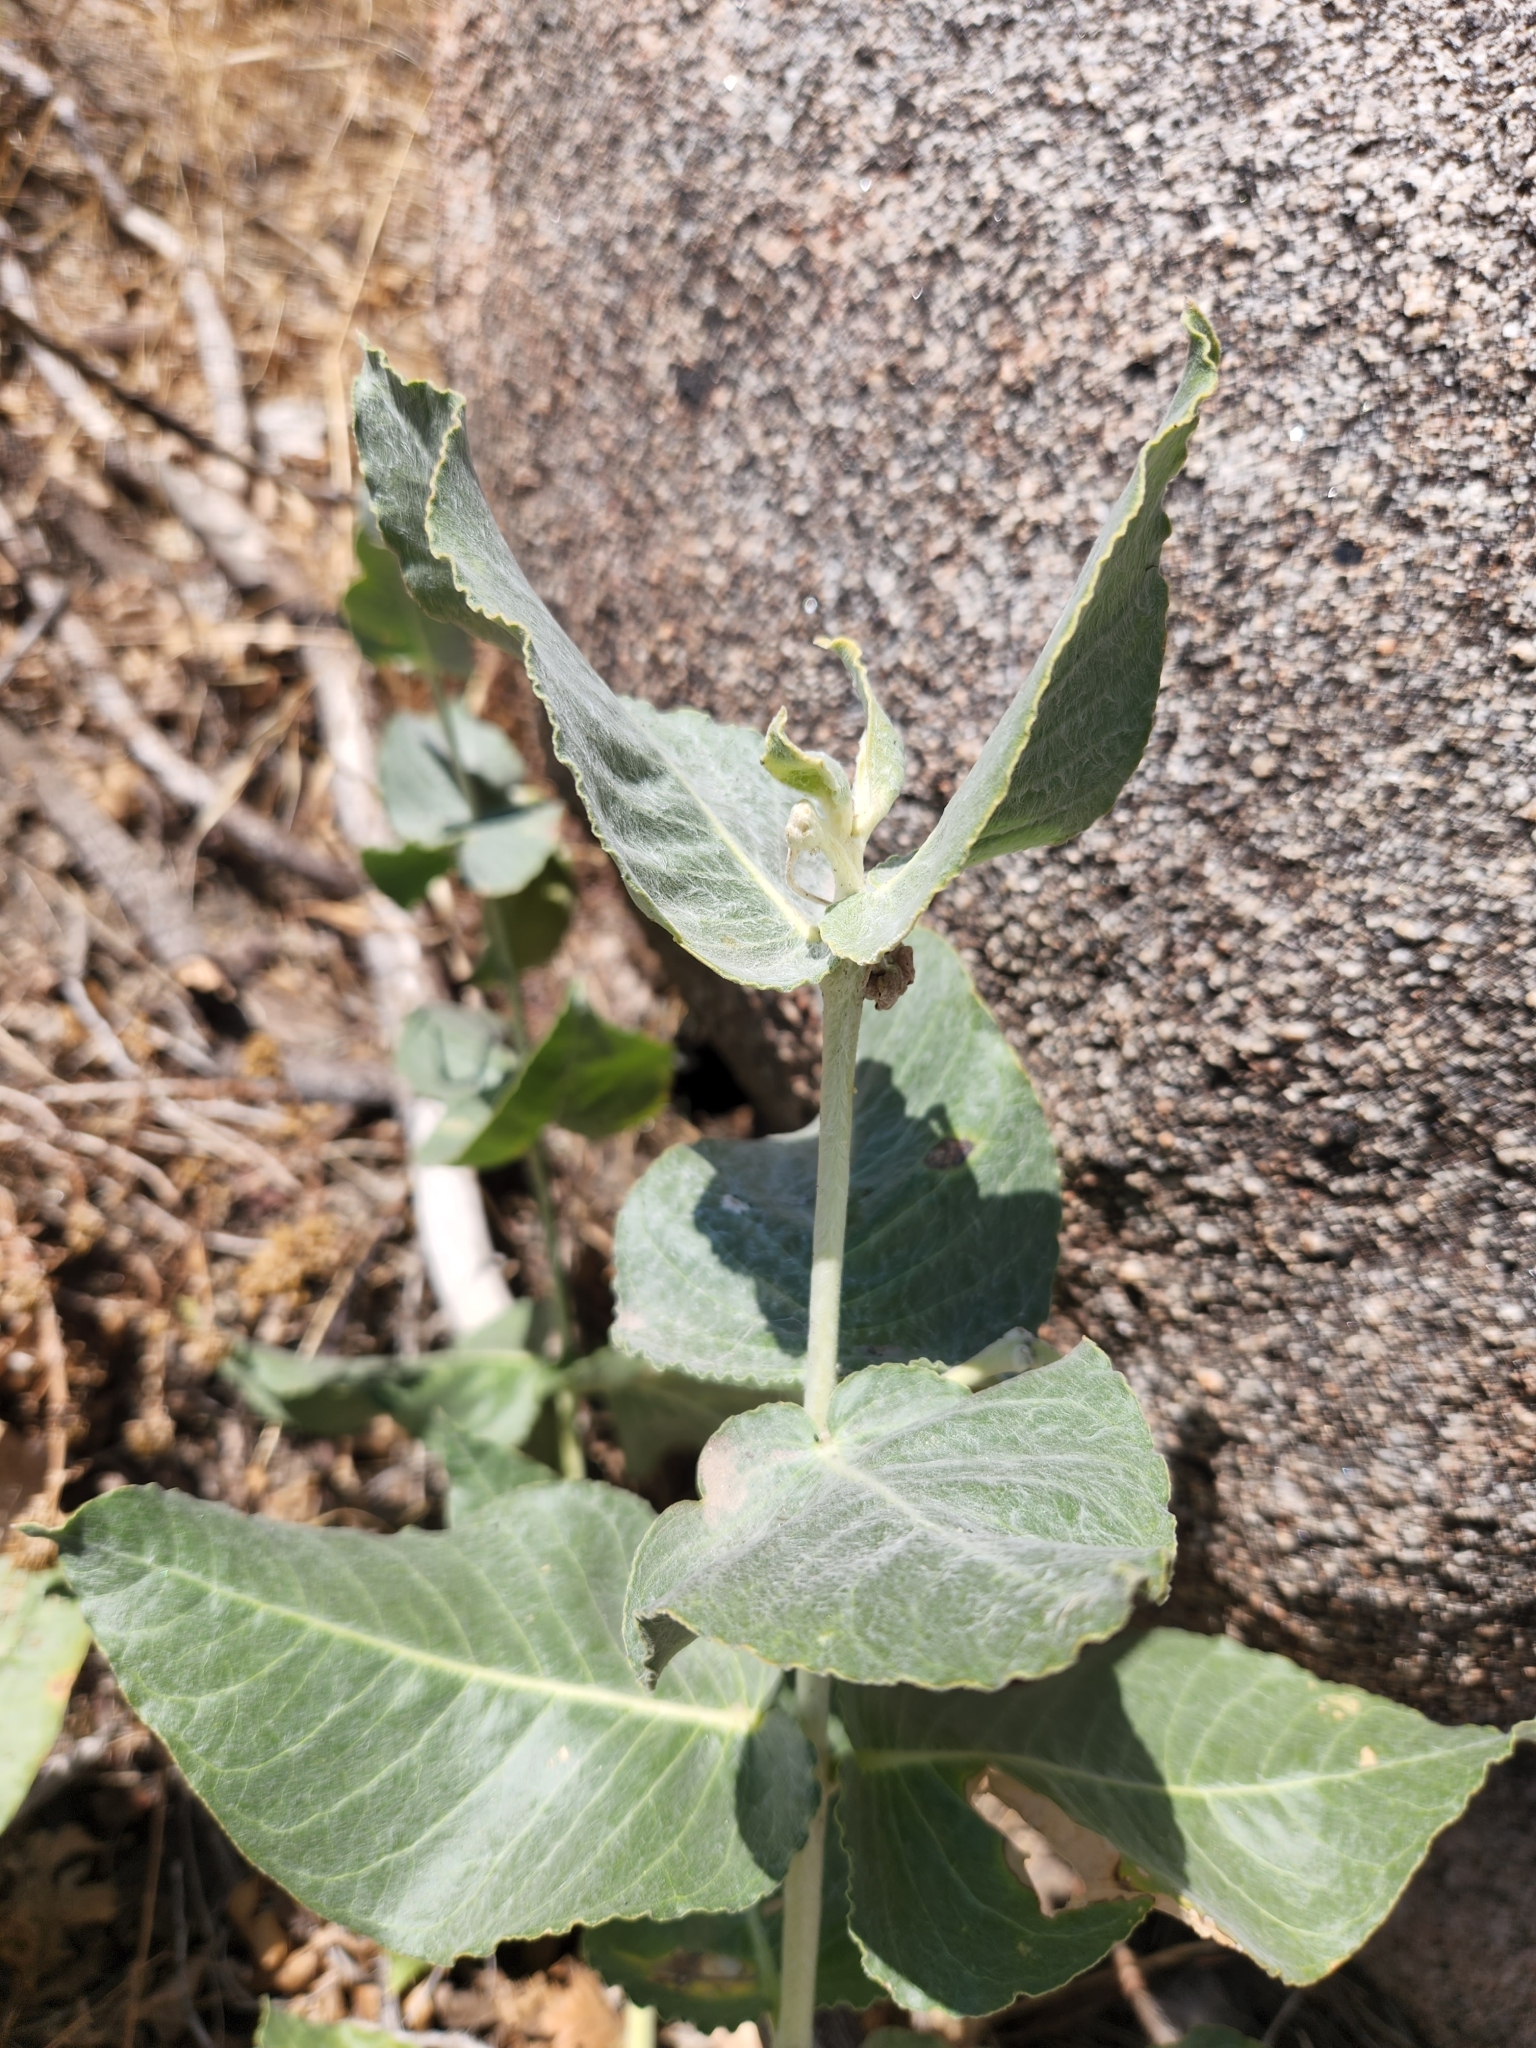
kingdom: Plantae
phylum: Tracheophyta
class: Magnoliopsida
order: Gentianales
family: Apocynaceae
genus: Asclepias
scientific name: Asclepias californica
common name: California milkweed
